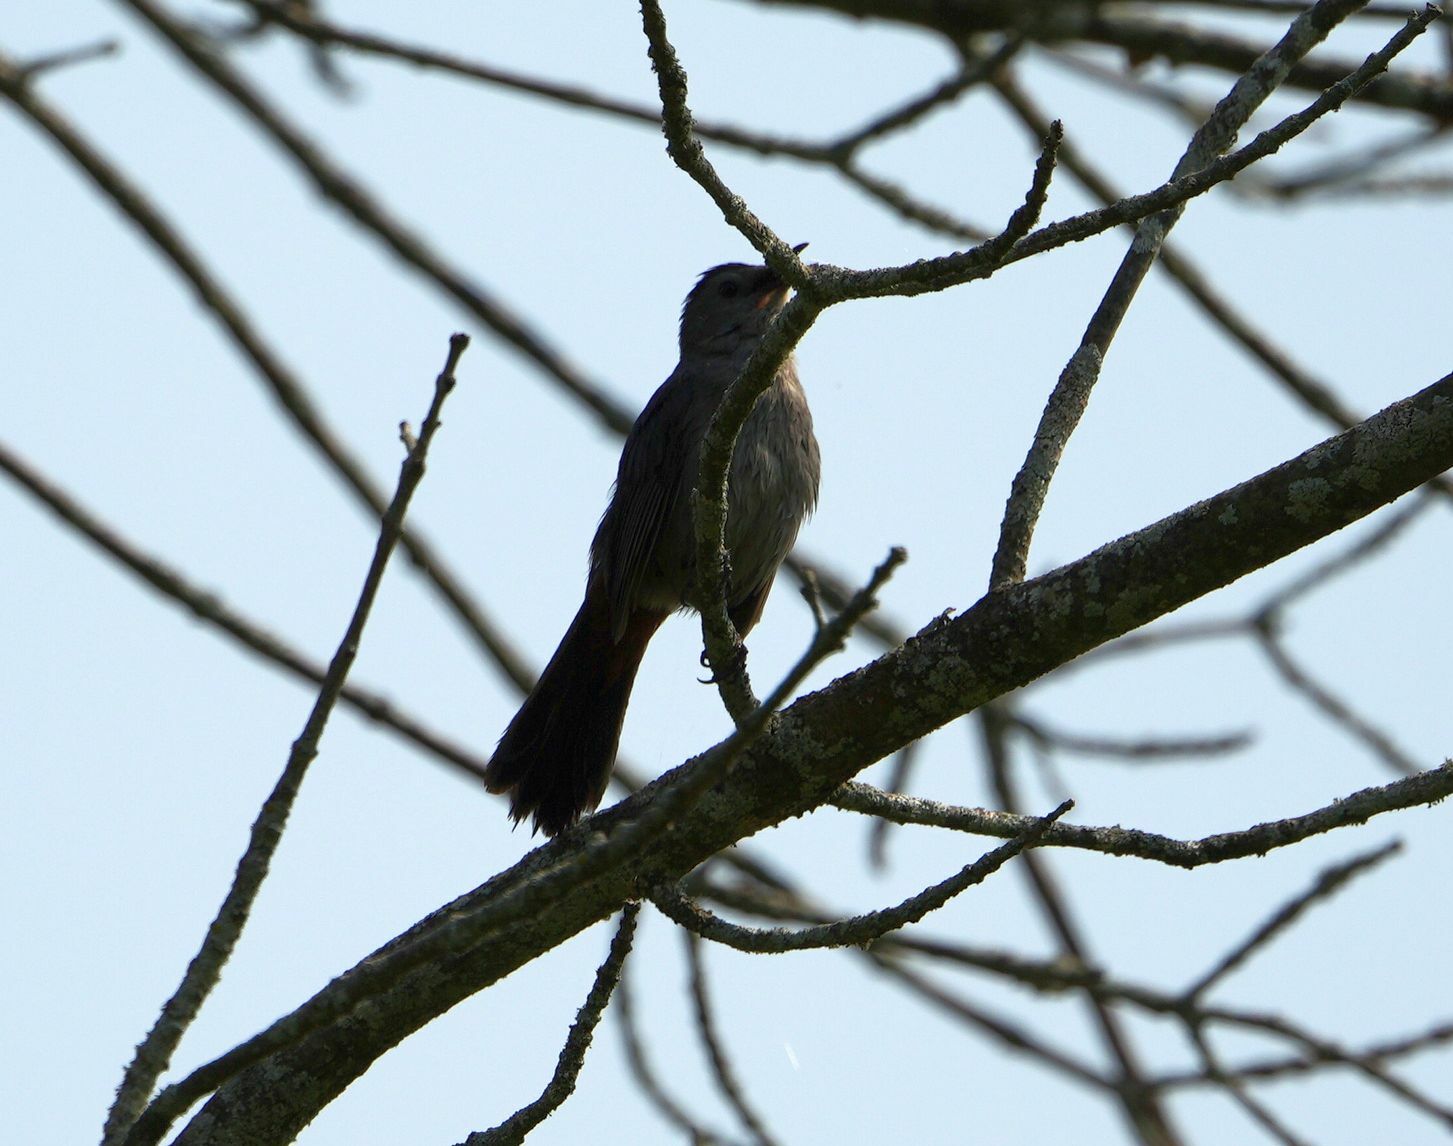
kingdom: Animalia
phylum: Chordata
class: Aves
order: Passeriformes
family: Mimidae
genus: Dumetella
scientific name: Dumetella carolinensis
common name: Gray catbird
